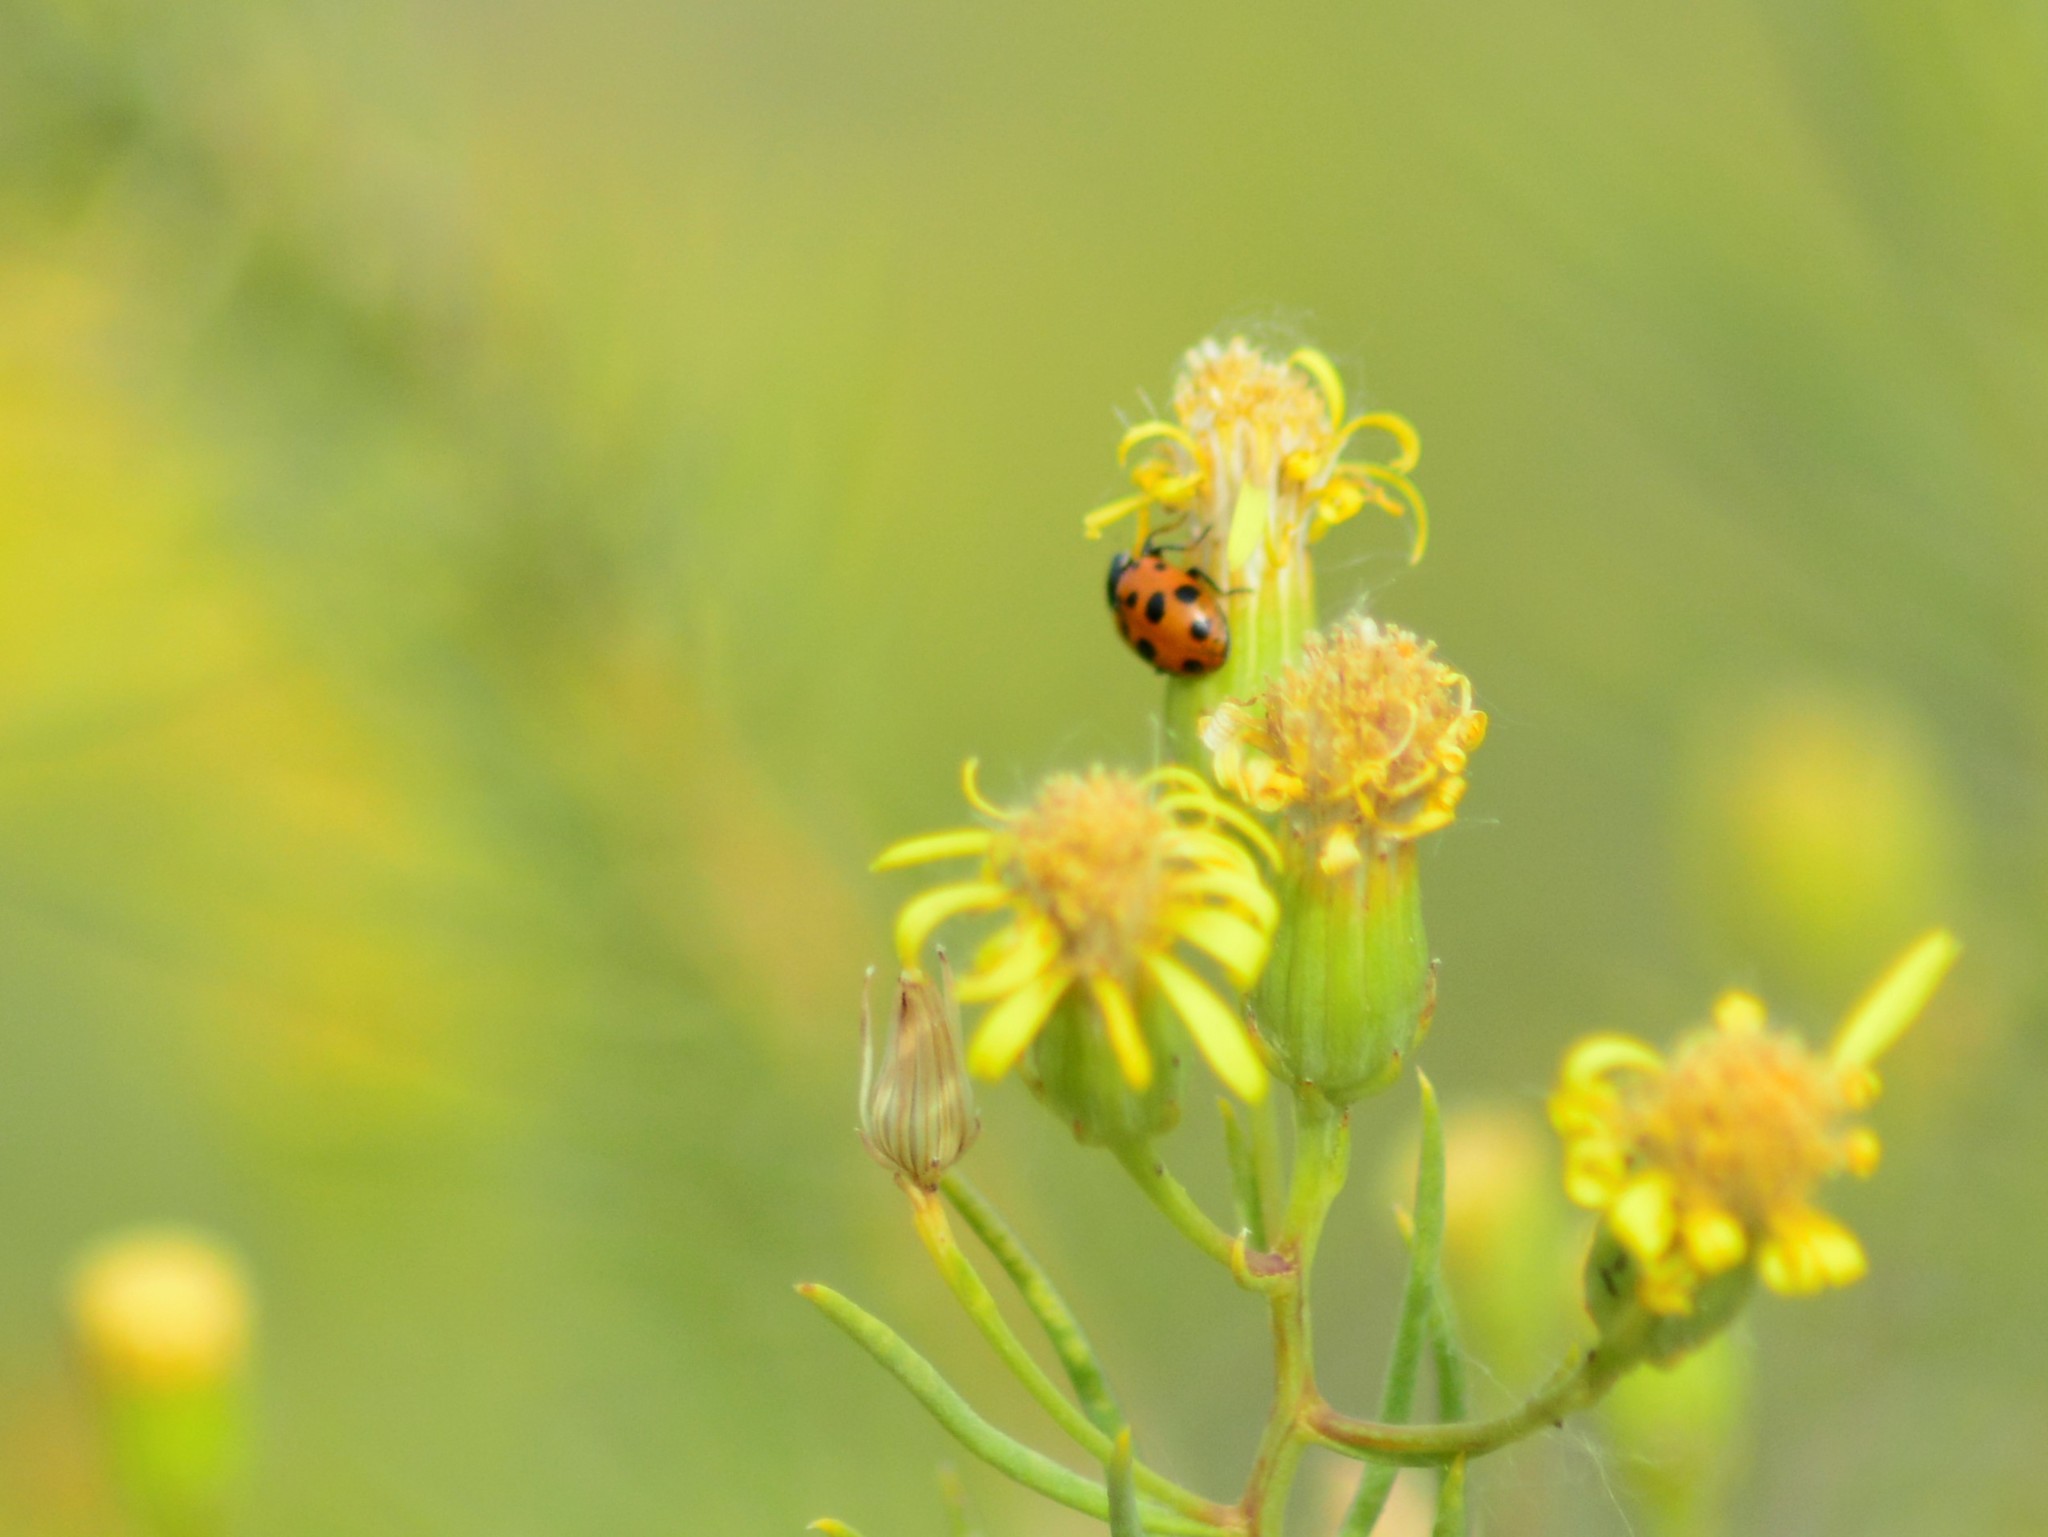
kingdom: Animalia
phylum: Arthropoda
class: Insecta
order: Coleoptera
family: Coccinellidae
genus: Hippodamia
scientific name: Hippodamia variegata
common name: Ladybird beetle
